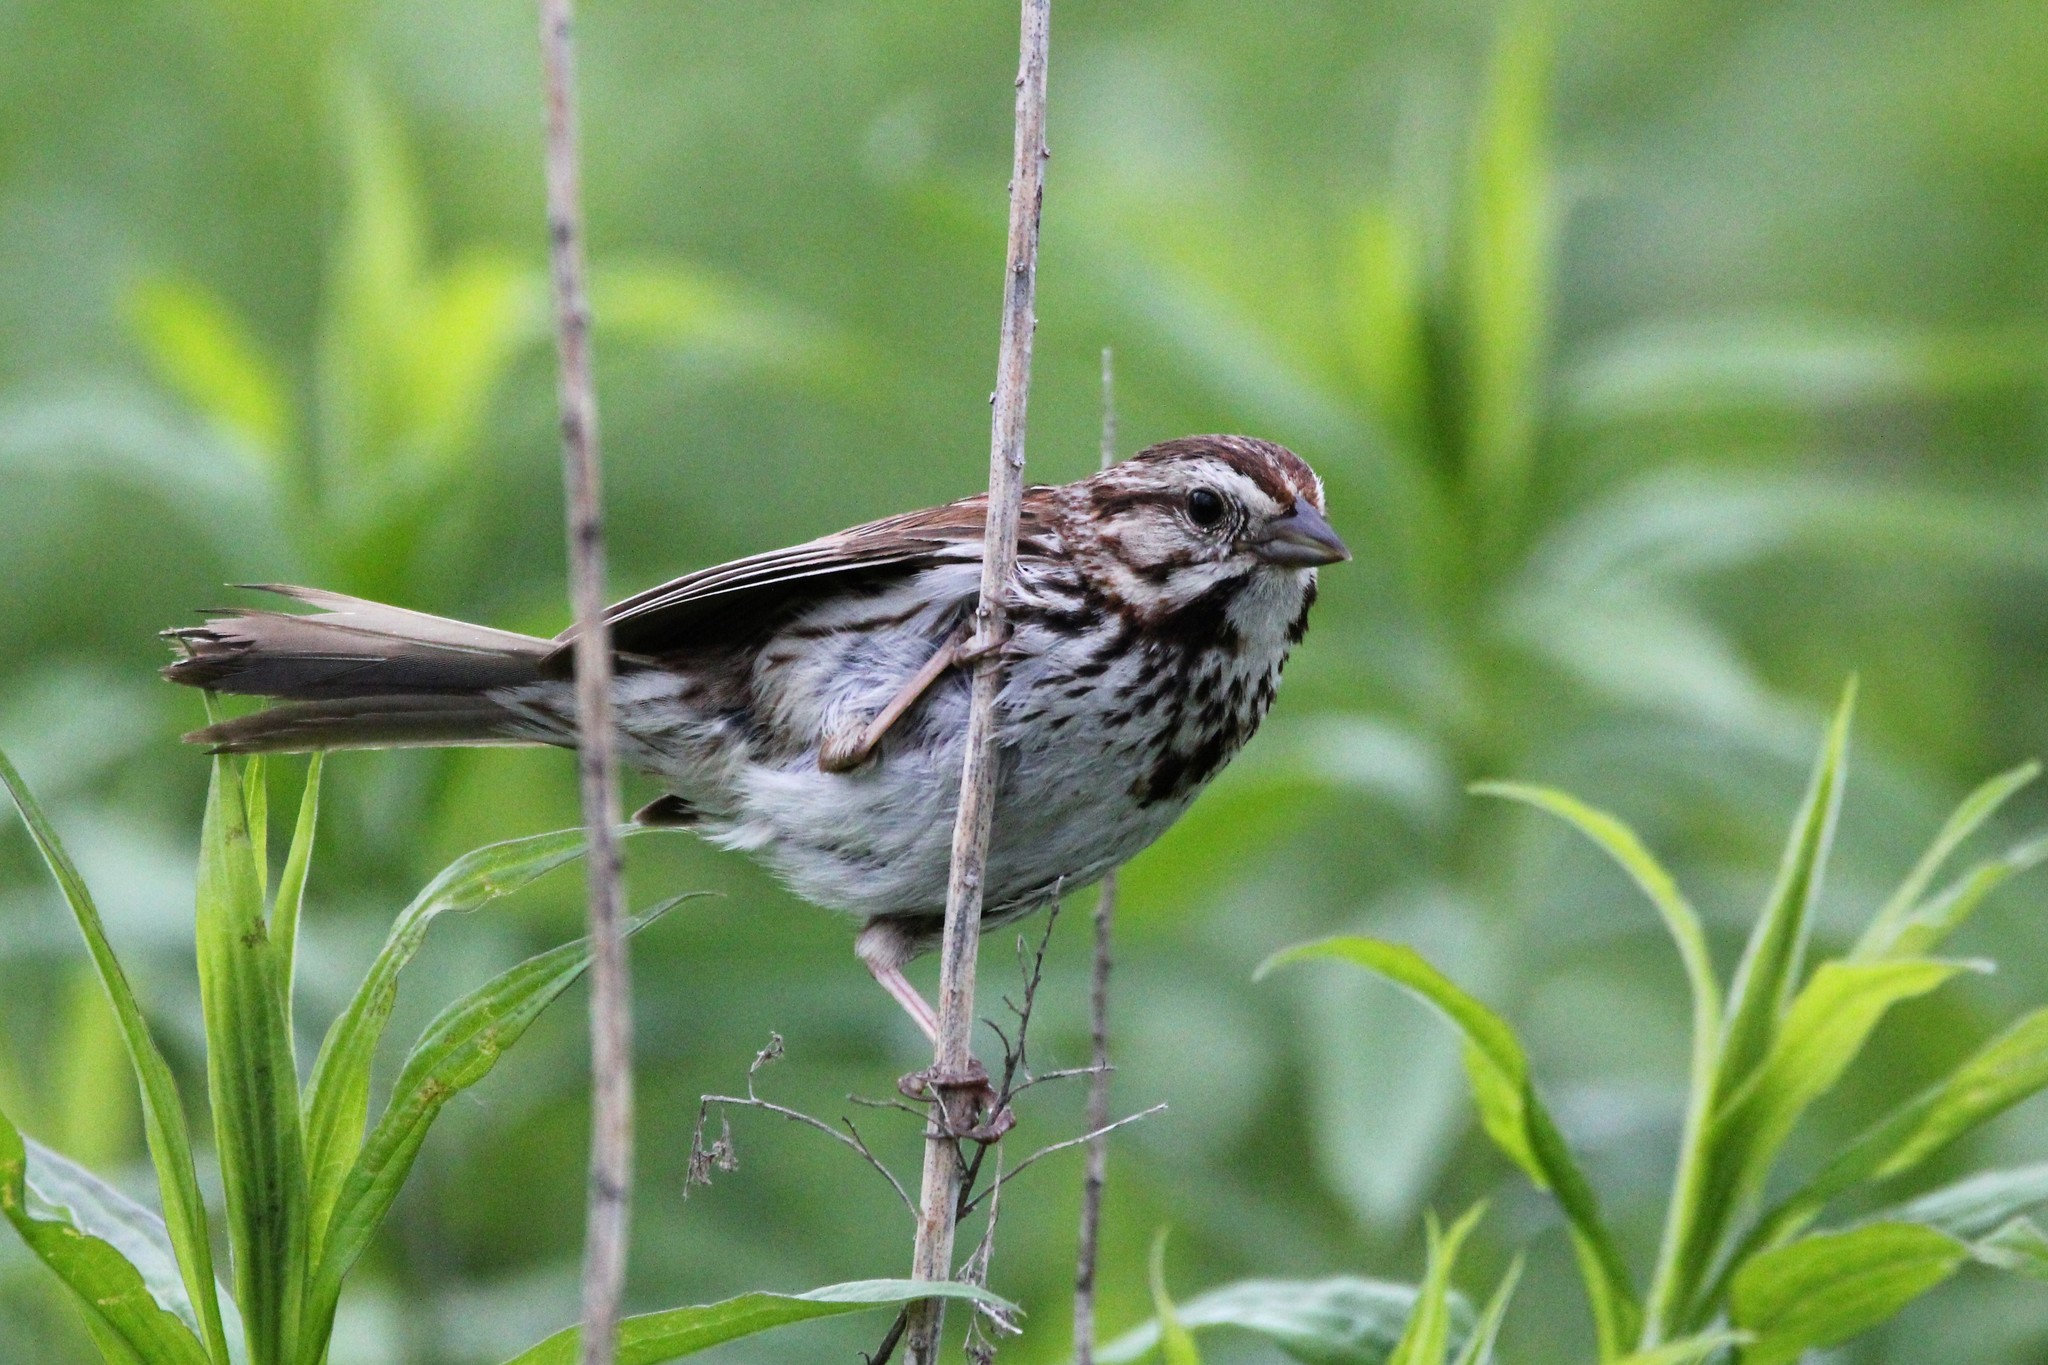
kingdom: Animalia
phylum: Chordata
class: Aves
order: Passeriformes
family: Passerellidae
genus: Melospiza
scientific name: Melospiza melodia
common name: Song sparrow
